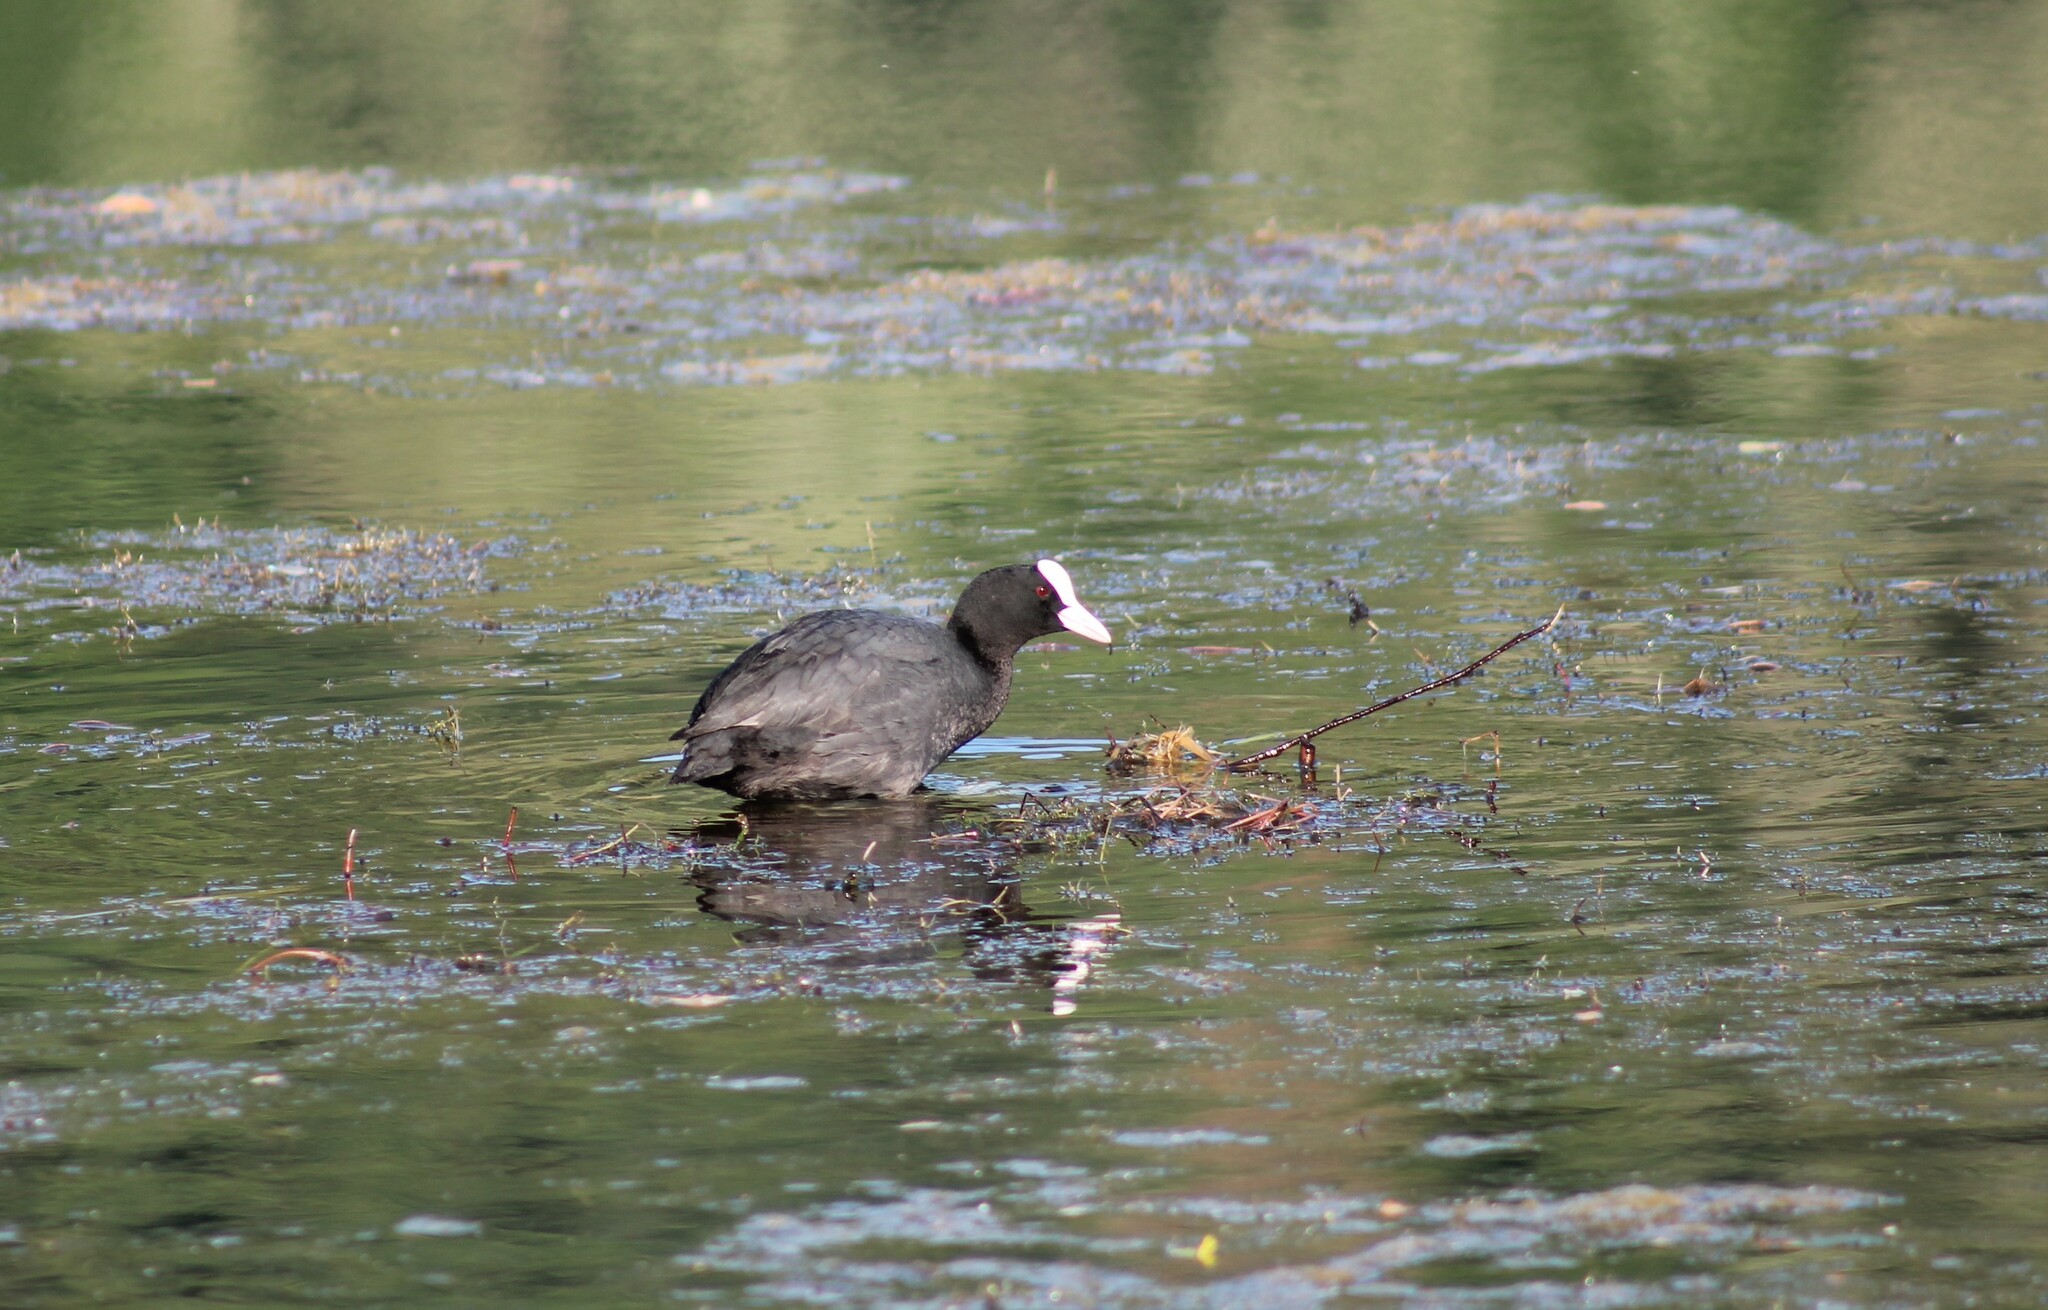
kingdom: Animalia
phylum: Chordata
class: Aves
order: Gruiformes
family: Rallidae
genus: Fulica
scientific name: Fulica atra
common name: Eurasian coot
